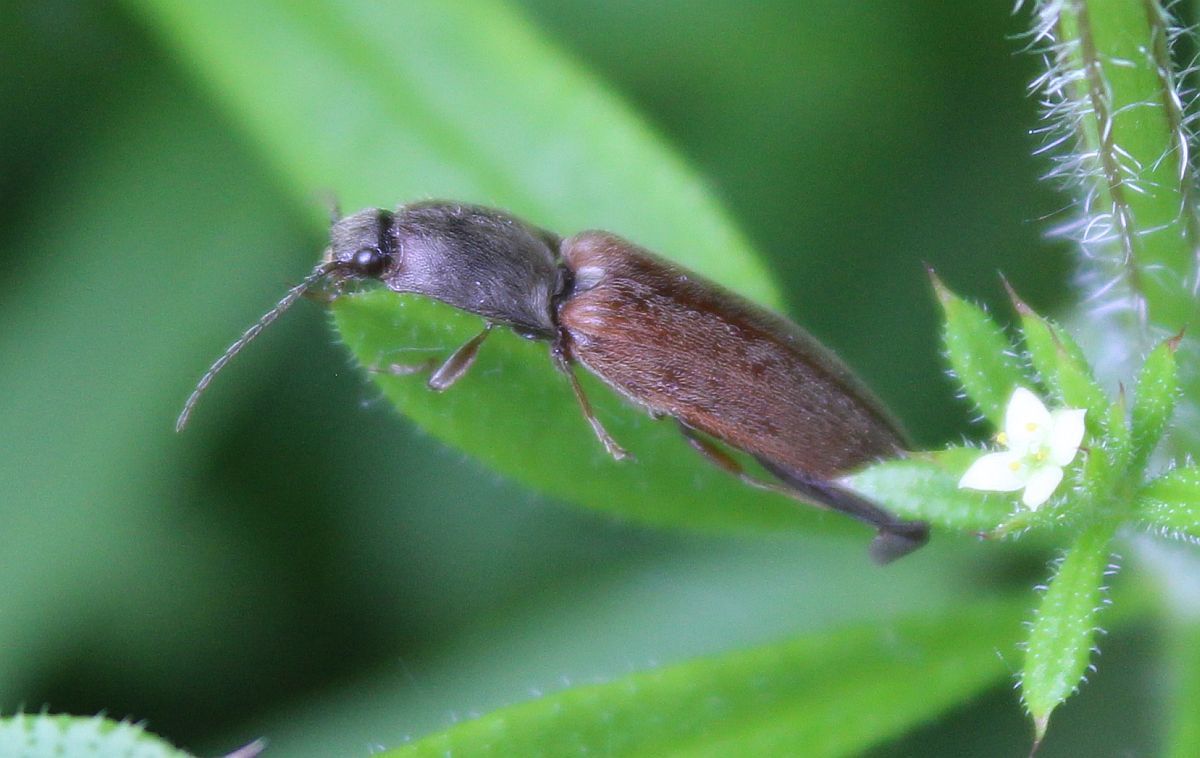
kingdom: Animalia
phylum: Arthropoda
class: Insecta
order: Coleoptera
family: Elateridae
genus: Athous
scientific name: Athous haemorrhoidalis
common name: Red-brown click beetle
